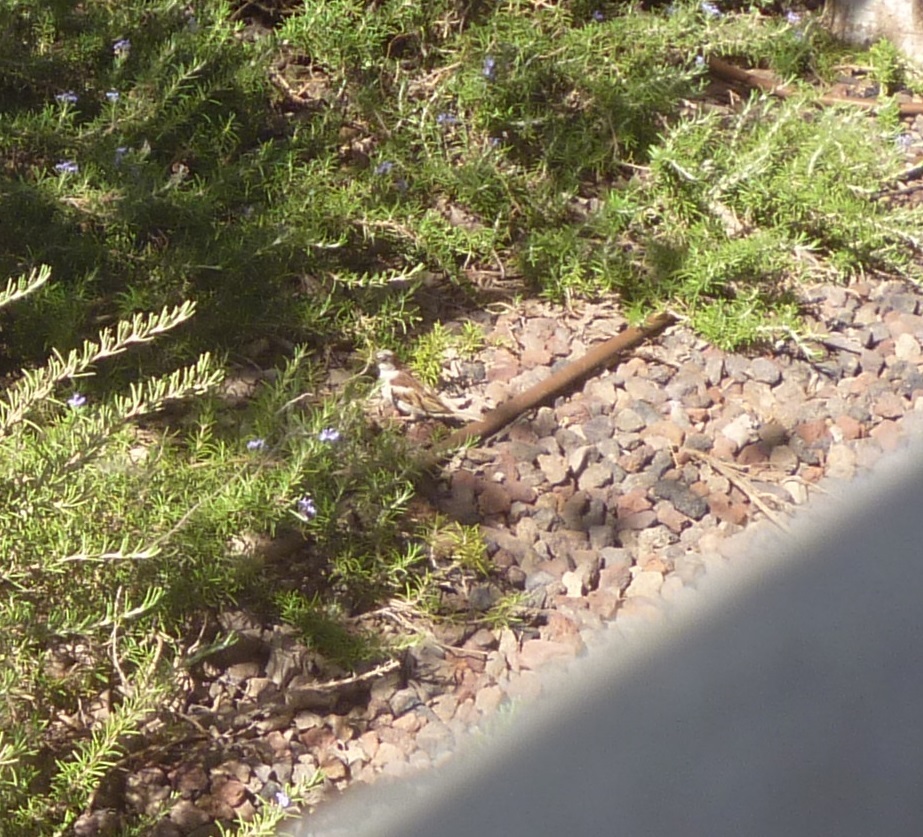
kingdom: Animalia
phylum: Chordata
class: Aves
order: Passeriformes
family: Passeridae
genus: Passer
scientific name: Passer domesticus
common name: House sparrow
